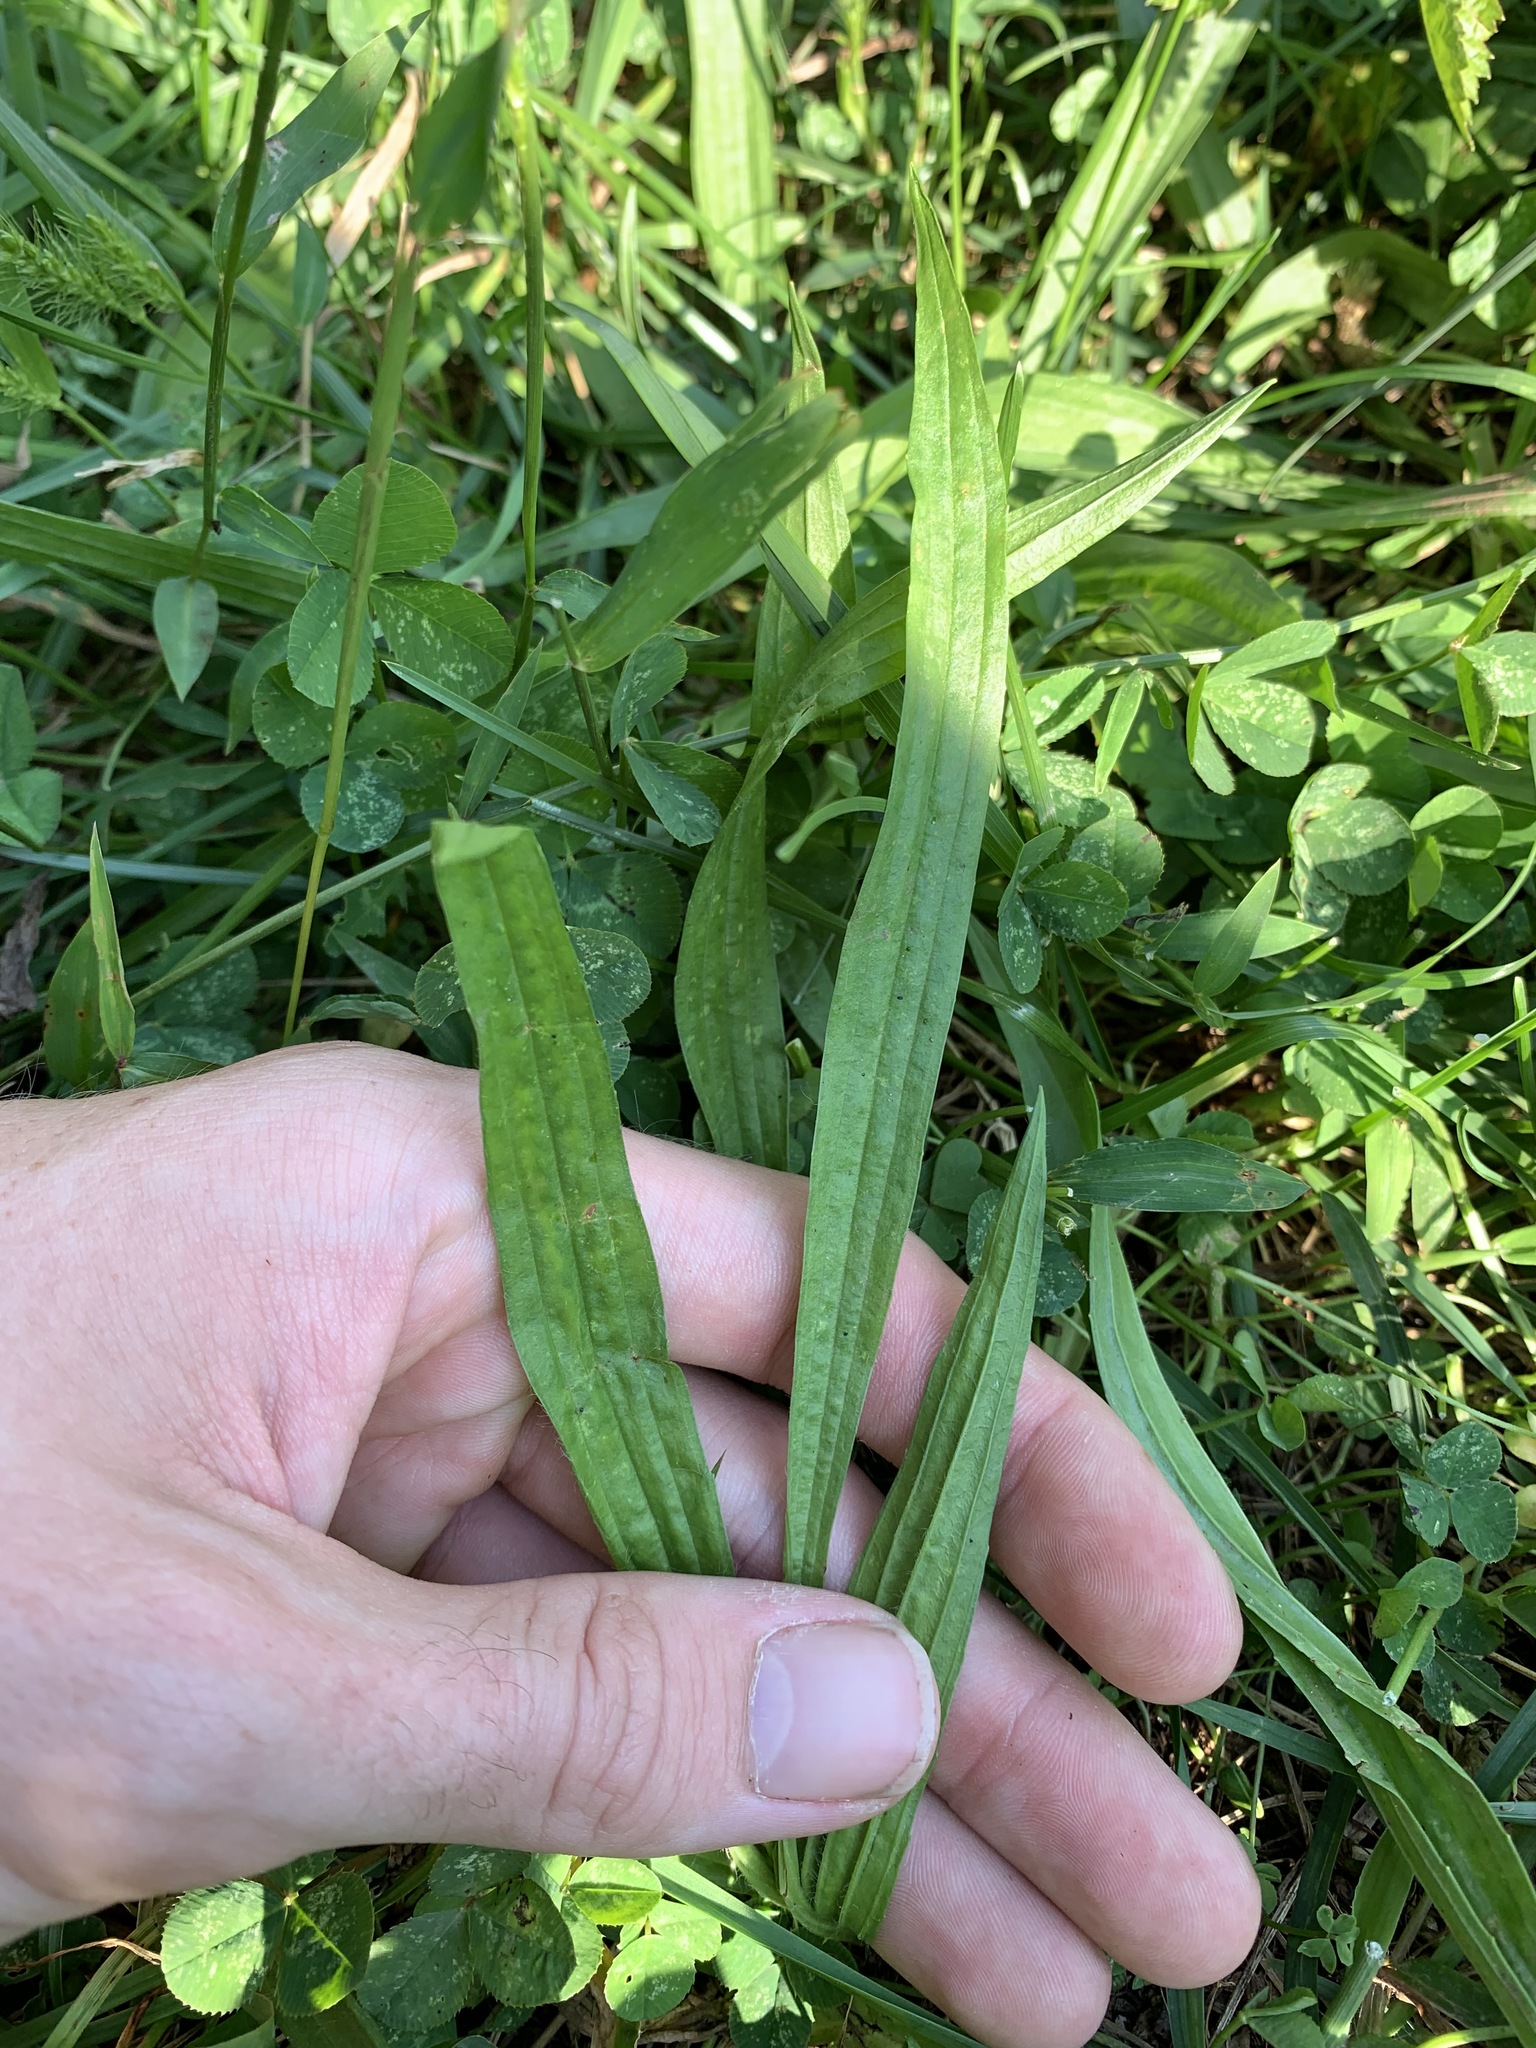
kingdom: Plantae
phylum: Tracheophyta
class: Magnoliopsida
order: Lamiales
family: Plantaginaceae
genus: Plantago
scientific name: Plantago lanceolata
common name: Ribwort plantain
